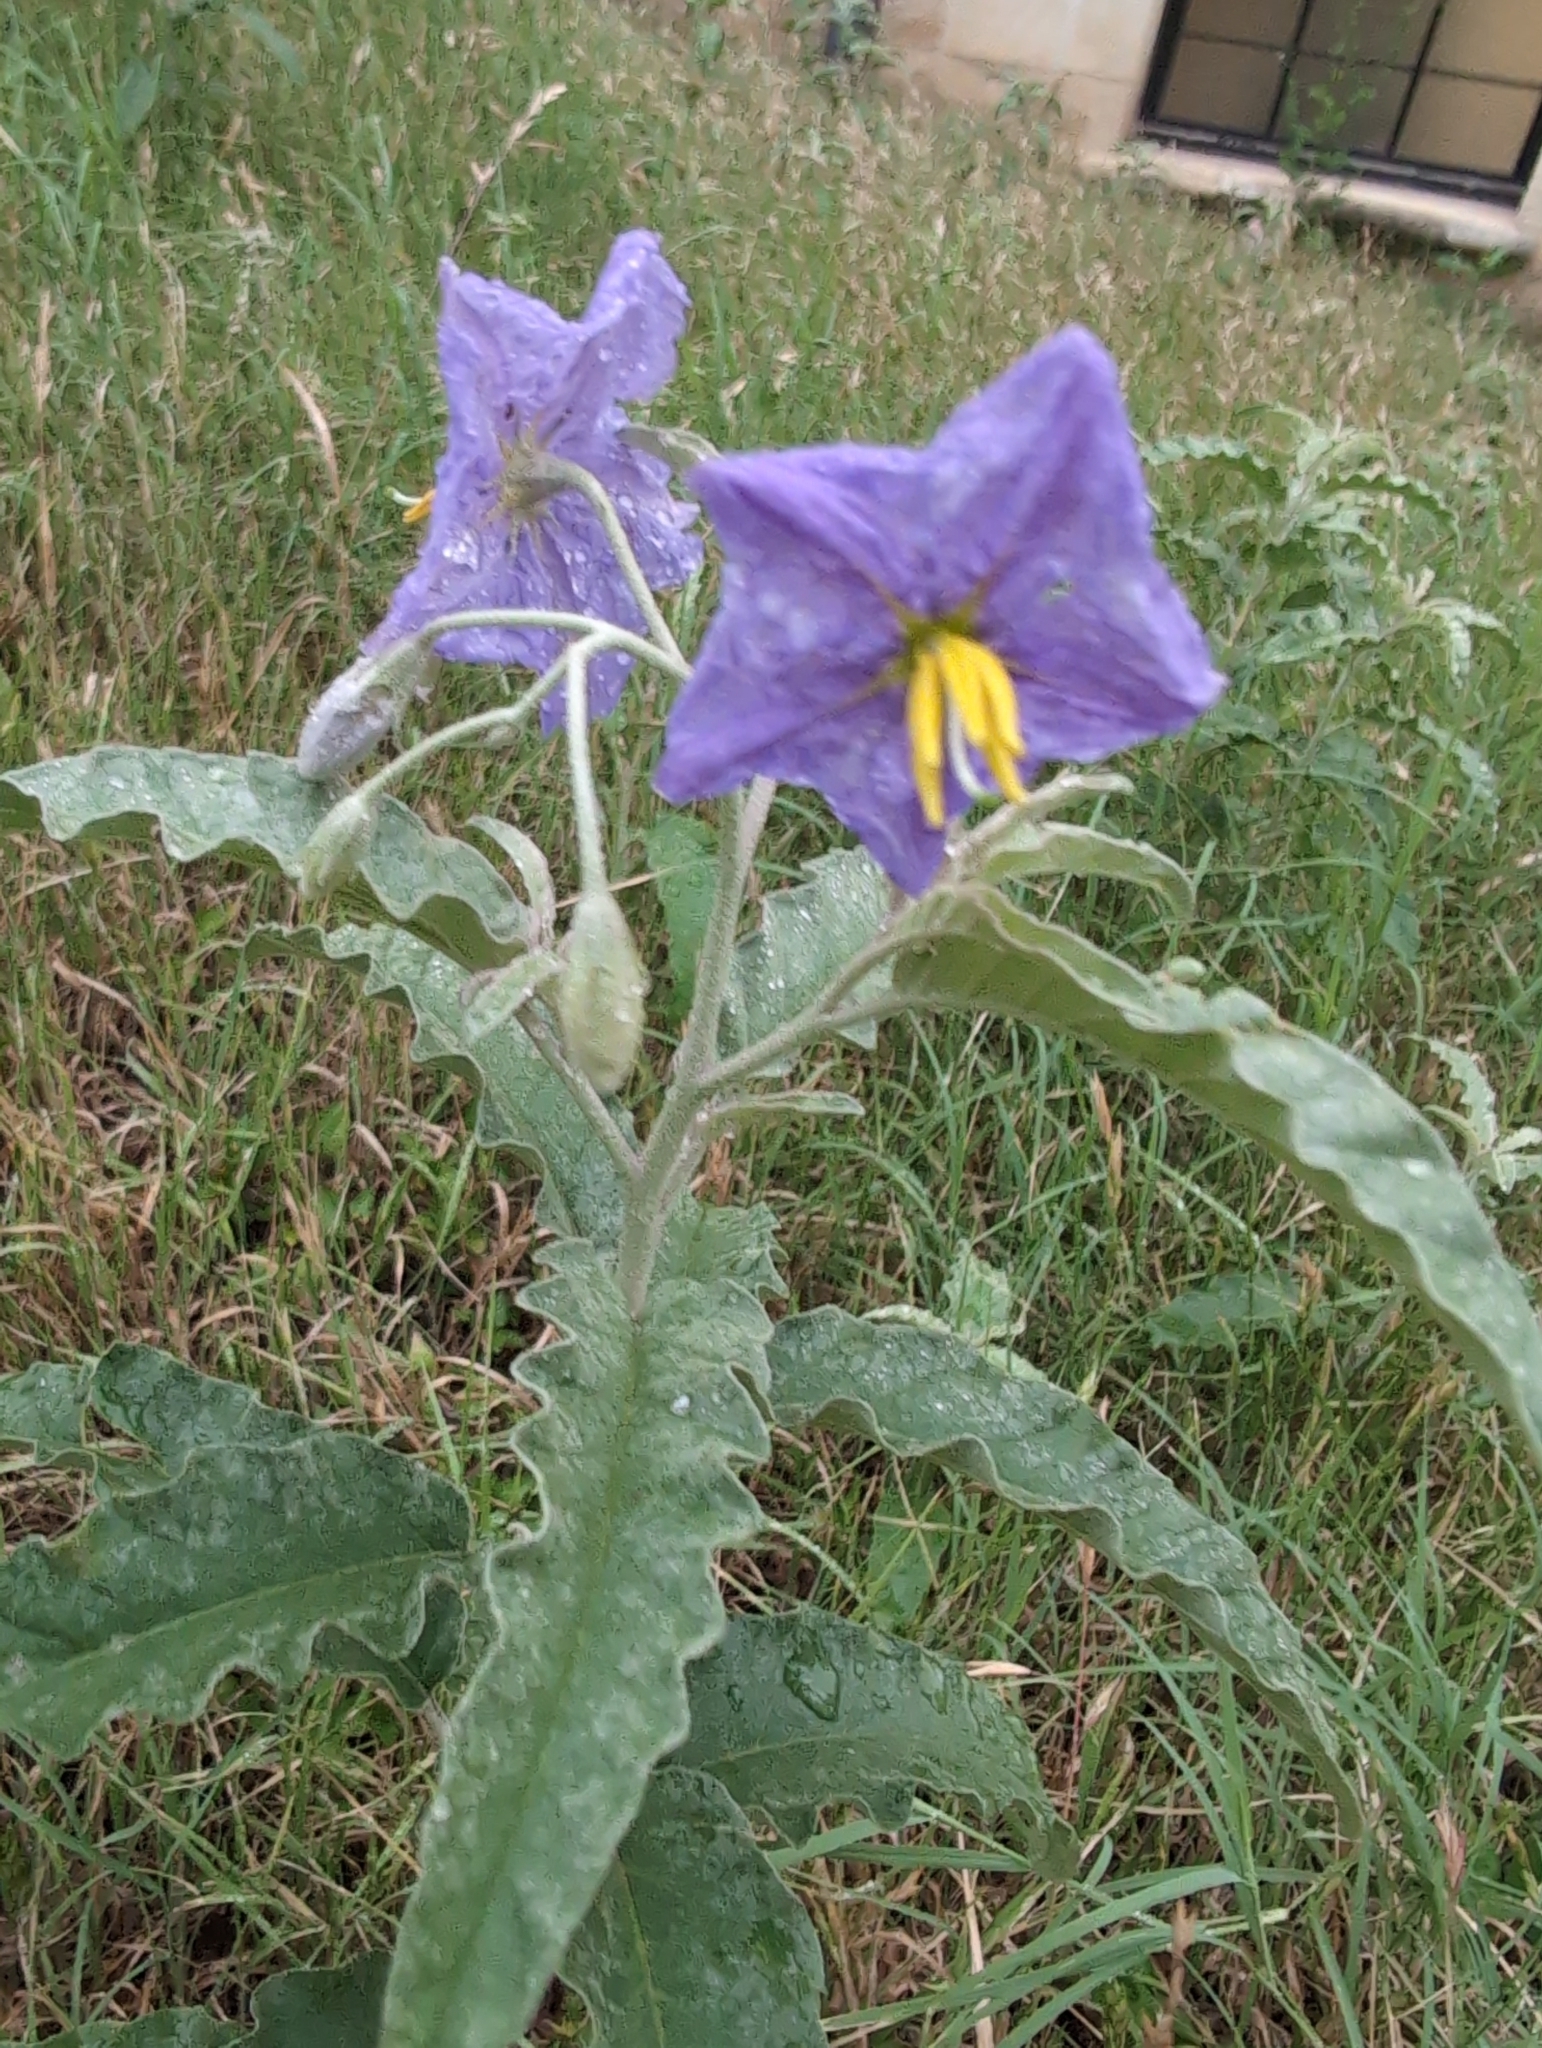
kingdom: Plantae
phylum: Tracheophyta
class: Magnoliopsida
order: Solanales
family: Solanaceae
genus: Solanum
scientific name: Solanum elaeagnifolium
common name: Silverleaf nightshade
